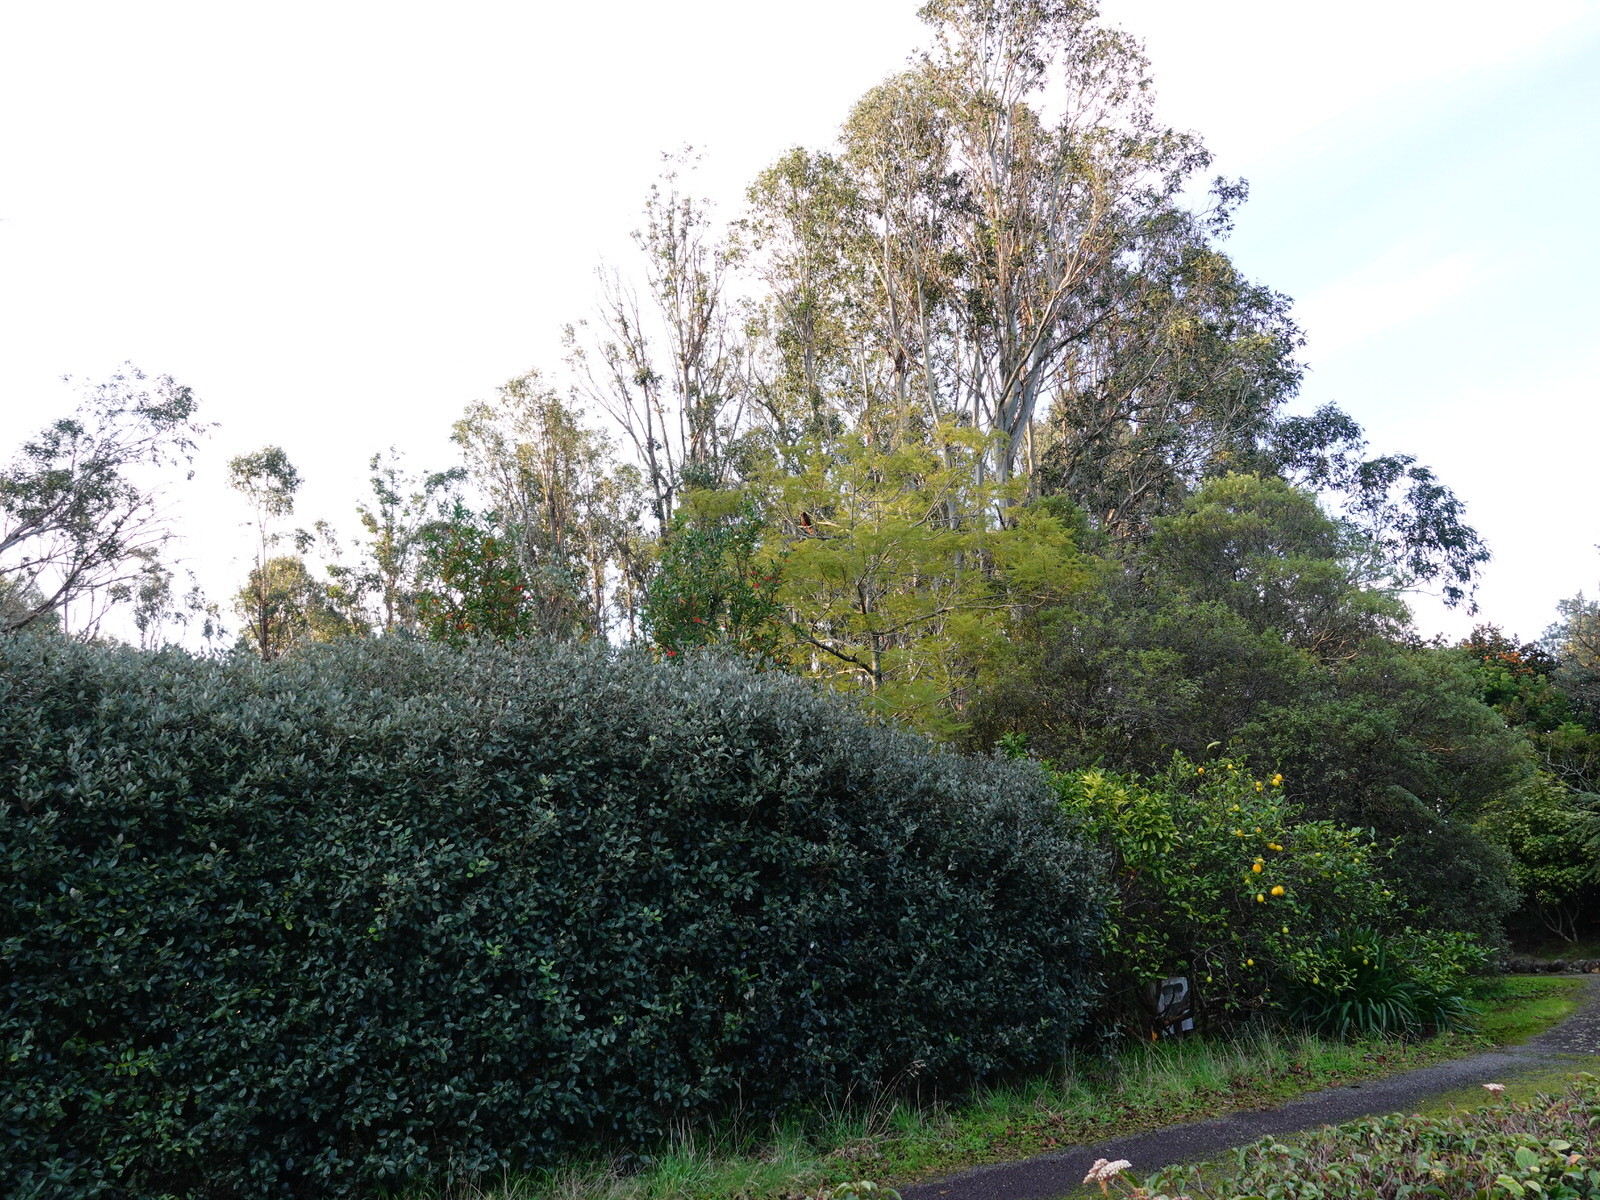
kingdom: Animalia
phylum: Chordata
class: Aves
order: Psittaciformes
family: Psittacidae
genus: Nestor
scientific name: Nestor meridionalis
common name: New zealand kaka
